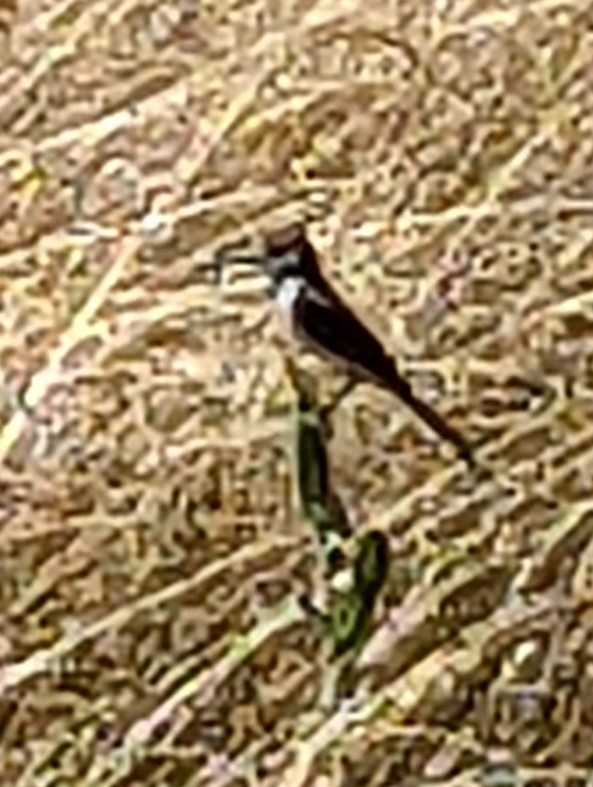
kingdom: Animalia
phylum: Chordata
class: Aves
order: Passeriformes
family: Tyrannidae
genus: Myiarchus
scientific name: Myiarchus cinerascens
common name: Ash-throated flycatcher
